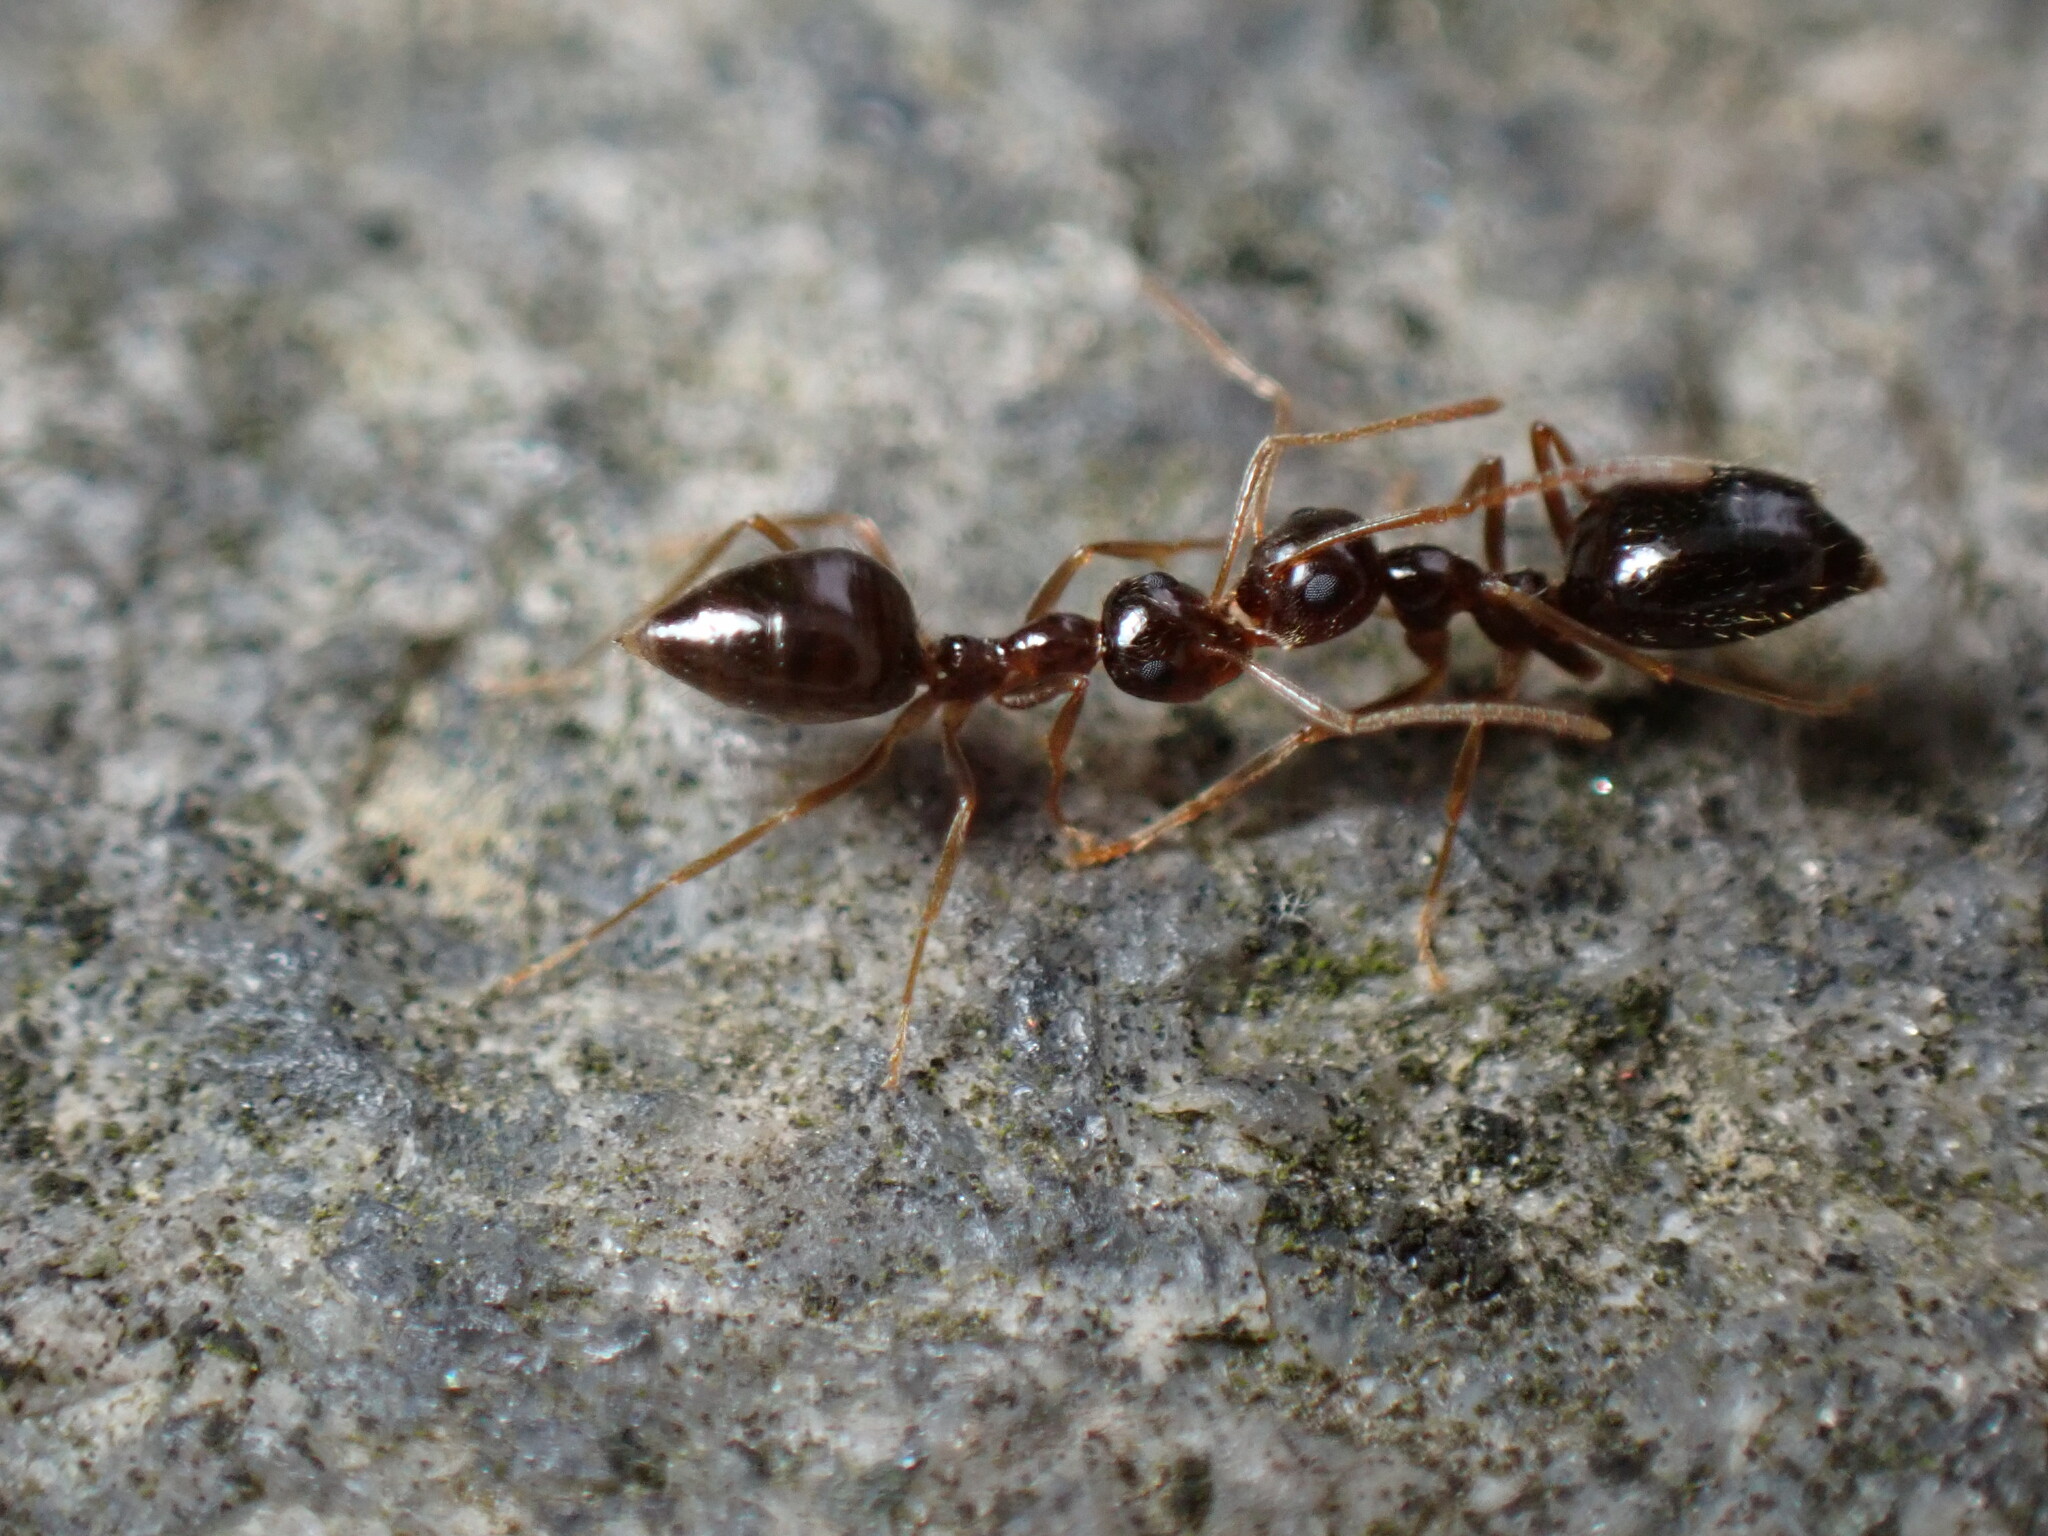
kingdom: Animalia
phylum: Arthropoda
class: Insecta
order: Hymenoptera
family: Formicidae
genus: Prenolepis
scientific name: Prenolepis imparis
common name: Small honey ant
